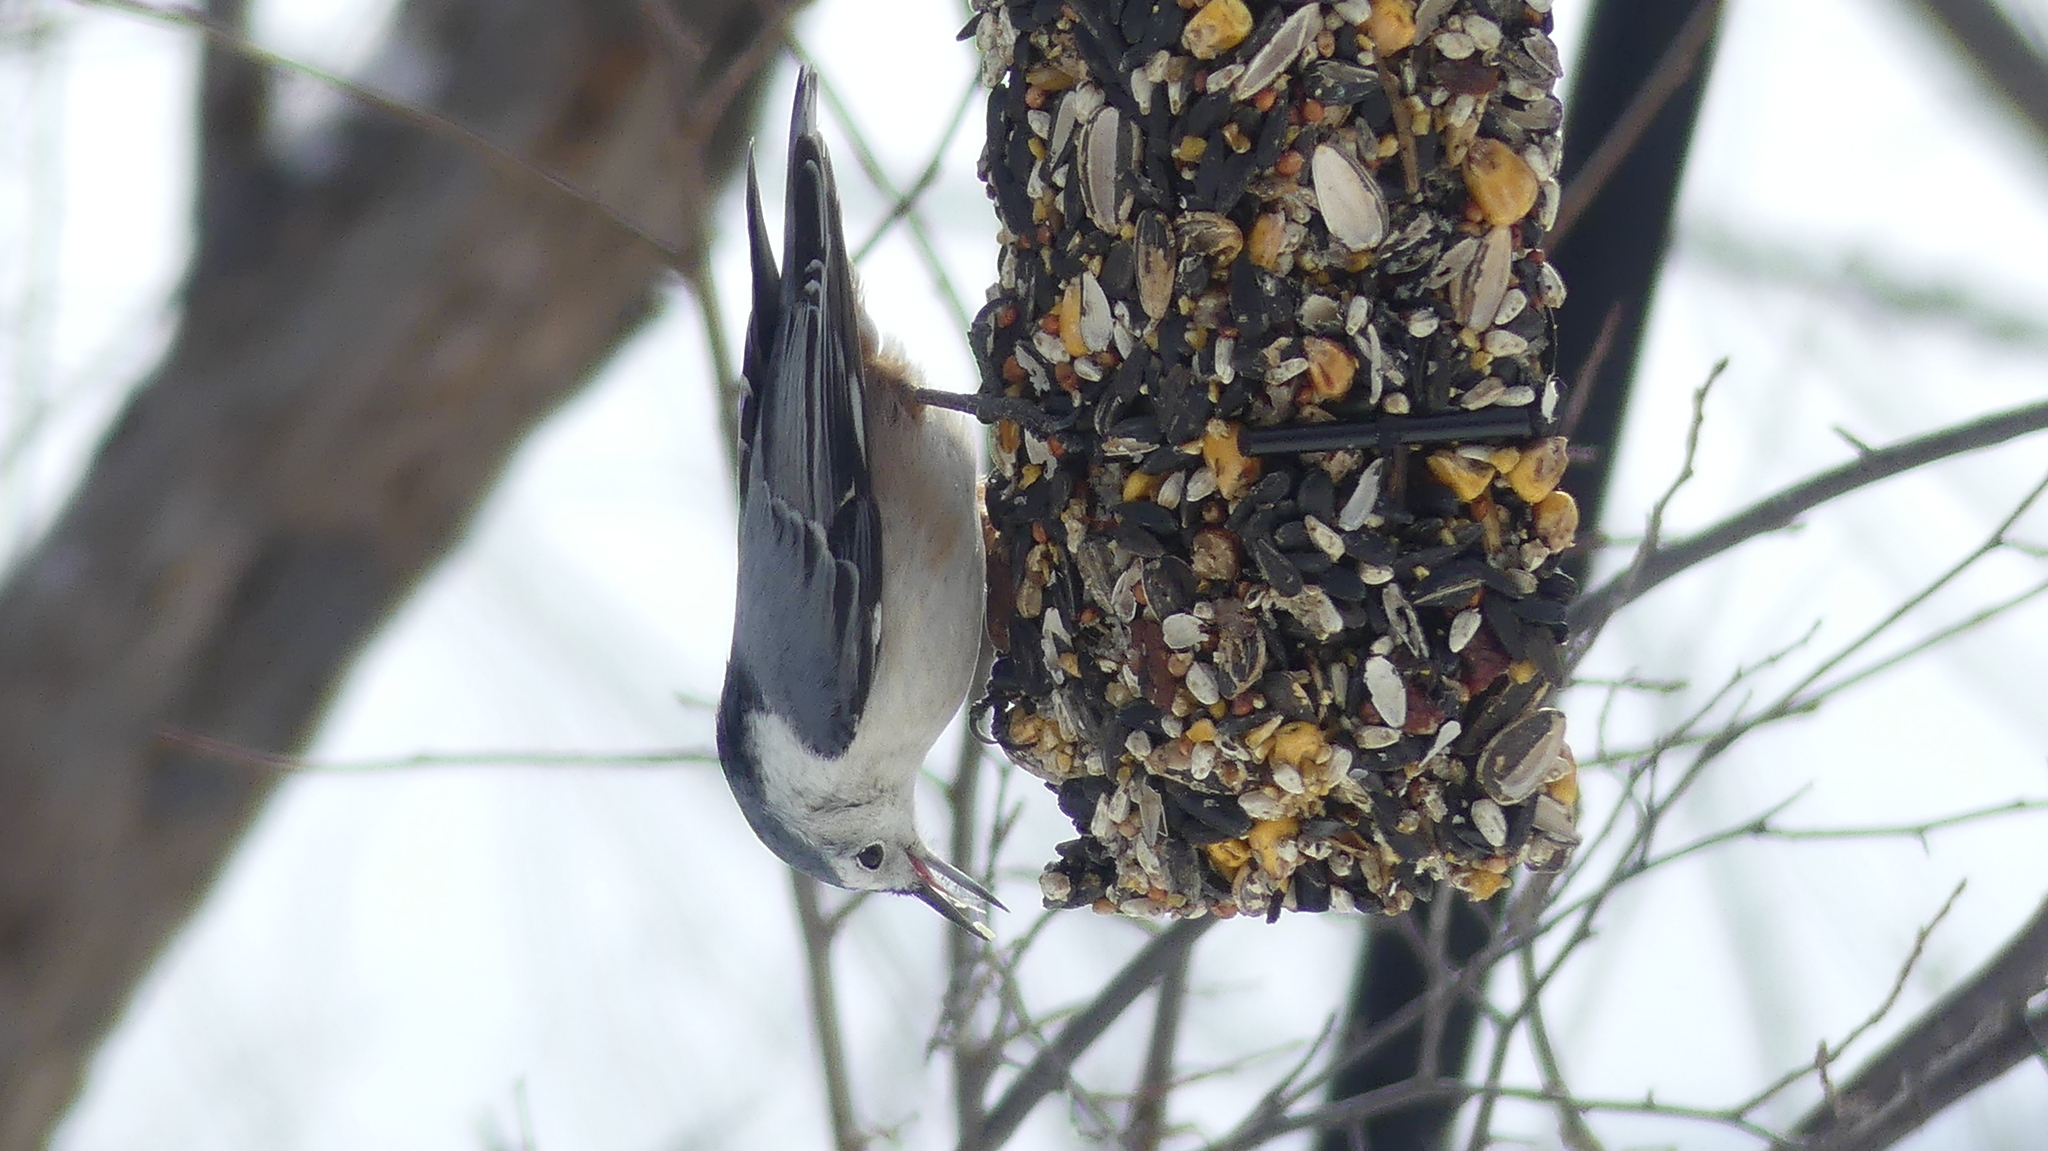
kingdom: Animalia
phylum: Chordata
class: Aves
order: Passeriformes
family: Sittidae
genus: Sitta
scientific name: Sitta carolinensis
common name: White-breasted nuthatch
